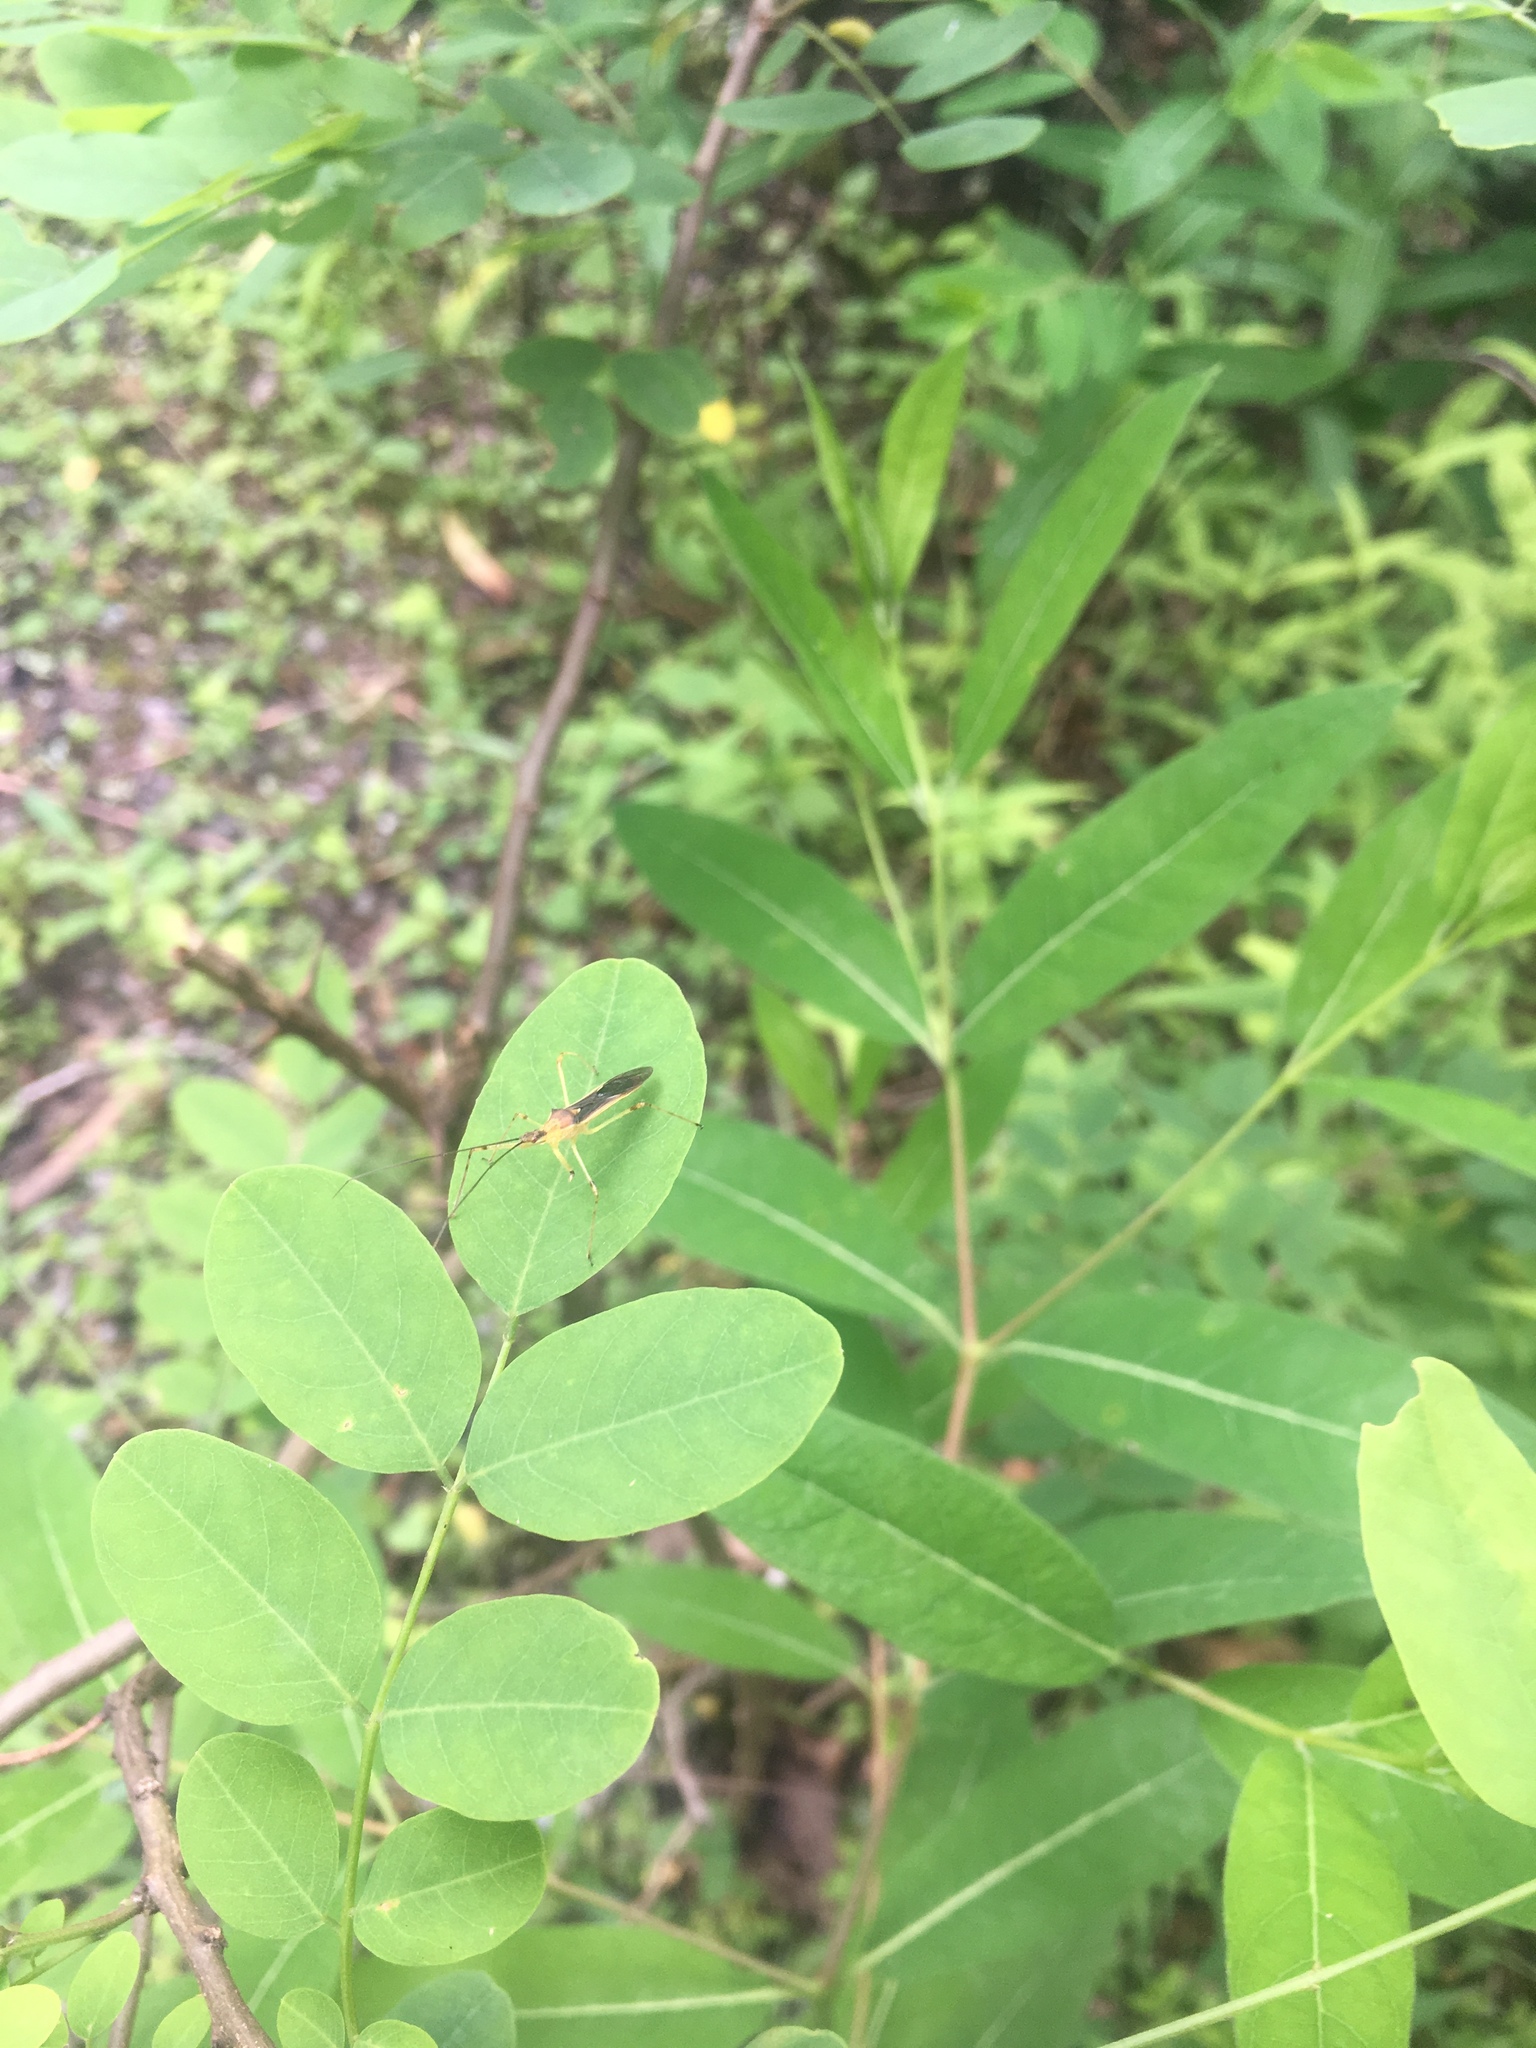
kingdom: Animalia
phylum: Arthropoda
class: Insecta
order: Hemiptera
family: Reduviidae
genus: Zelus
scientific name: Zelus luridus
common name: Pale green assassin bug
